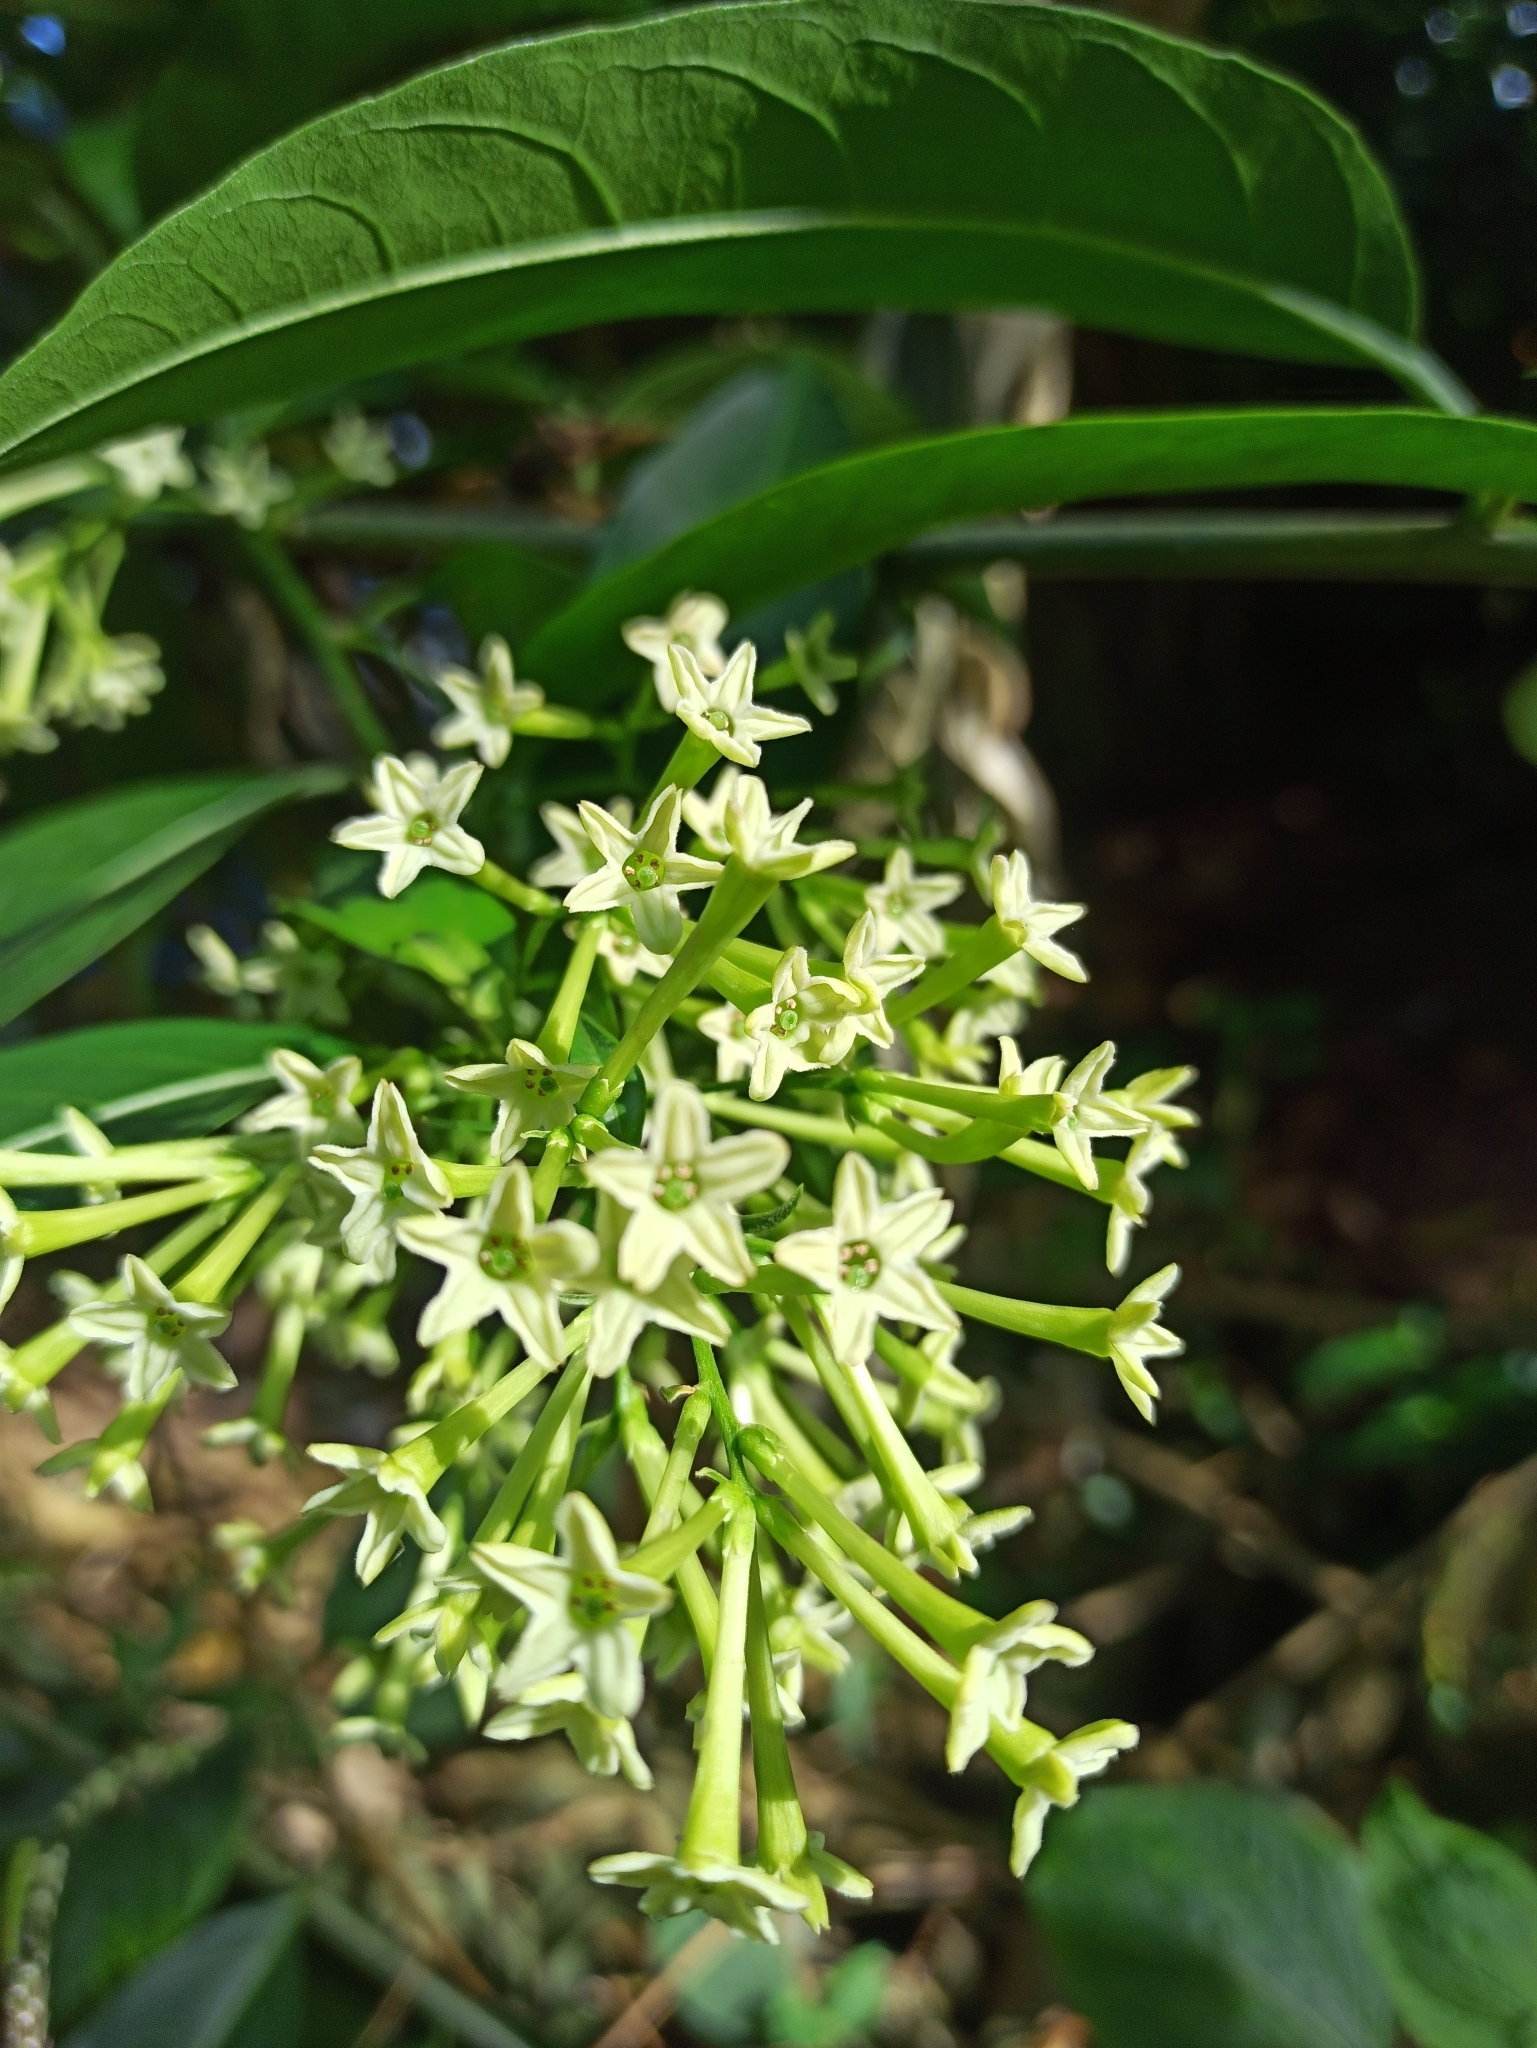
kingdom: Plantae
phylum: Tracheophyta
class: Magnoliopsida
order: Solanales
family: Solanaceae
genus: Cestrum
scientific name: Cestrum nocturnum
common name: Night jessamine
